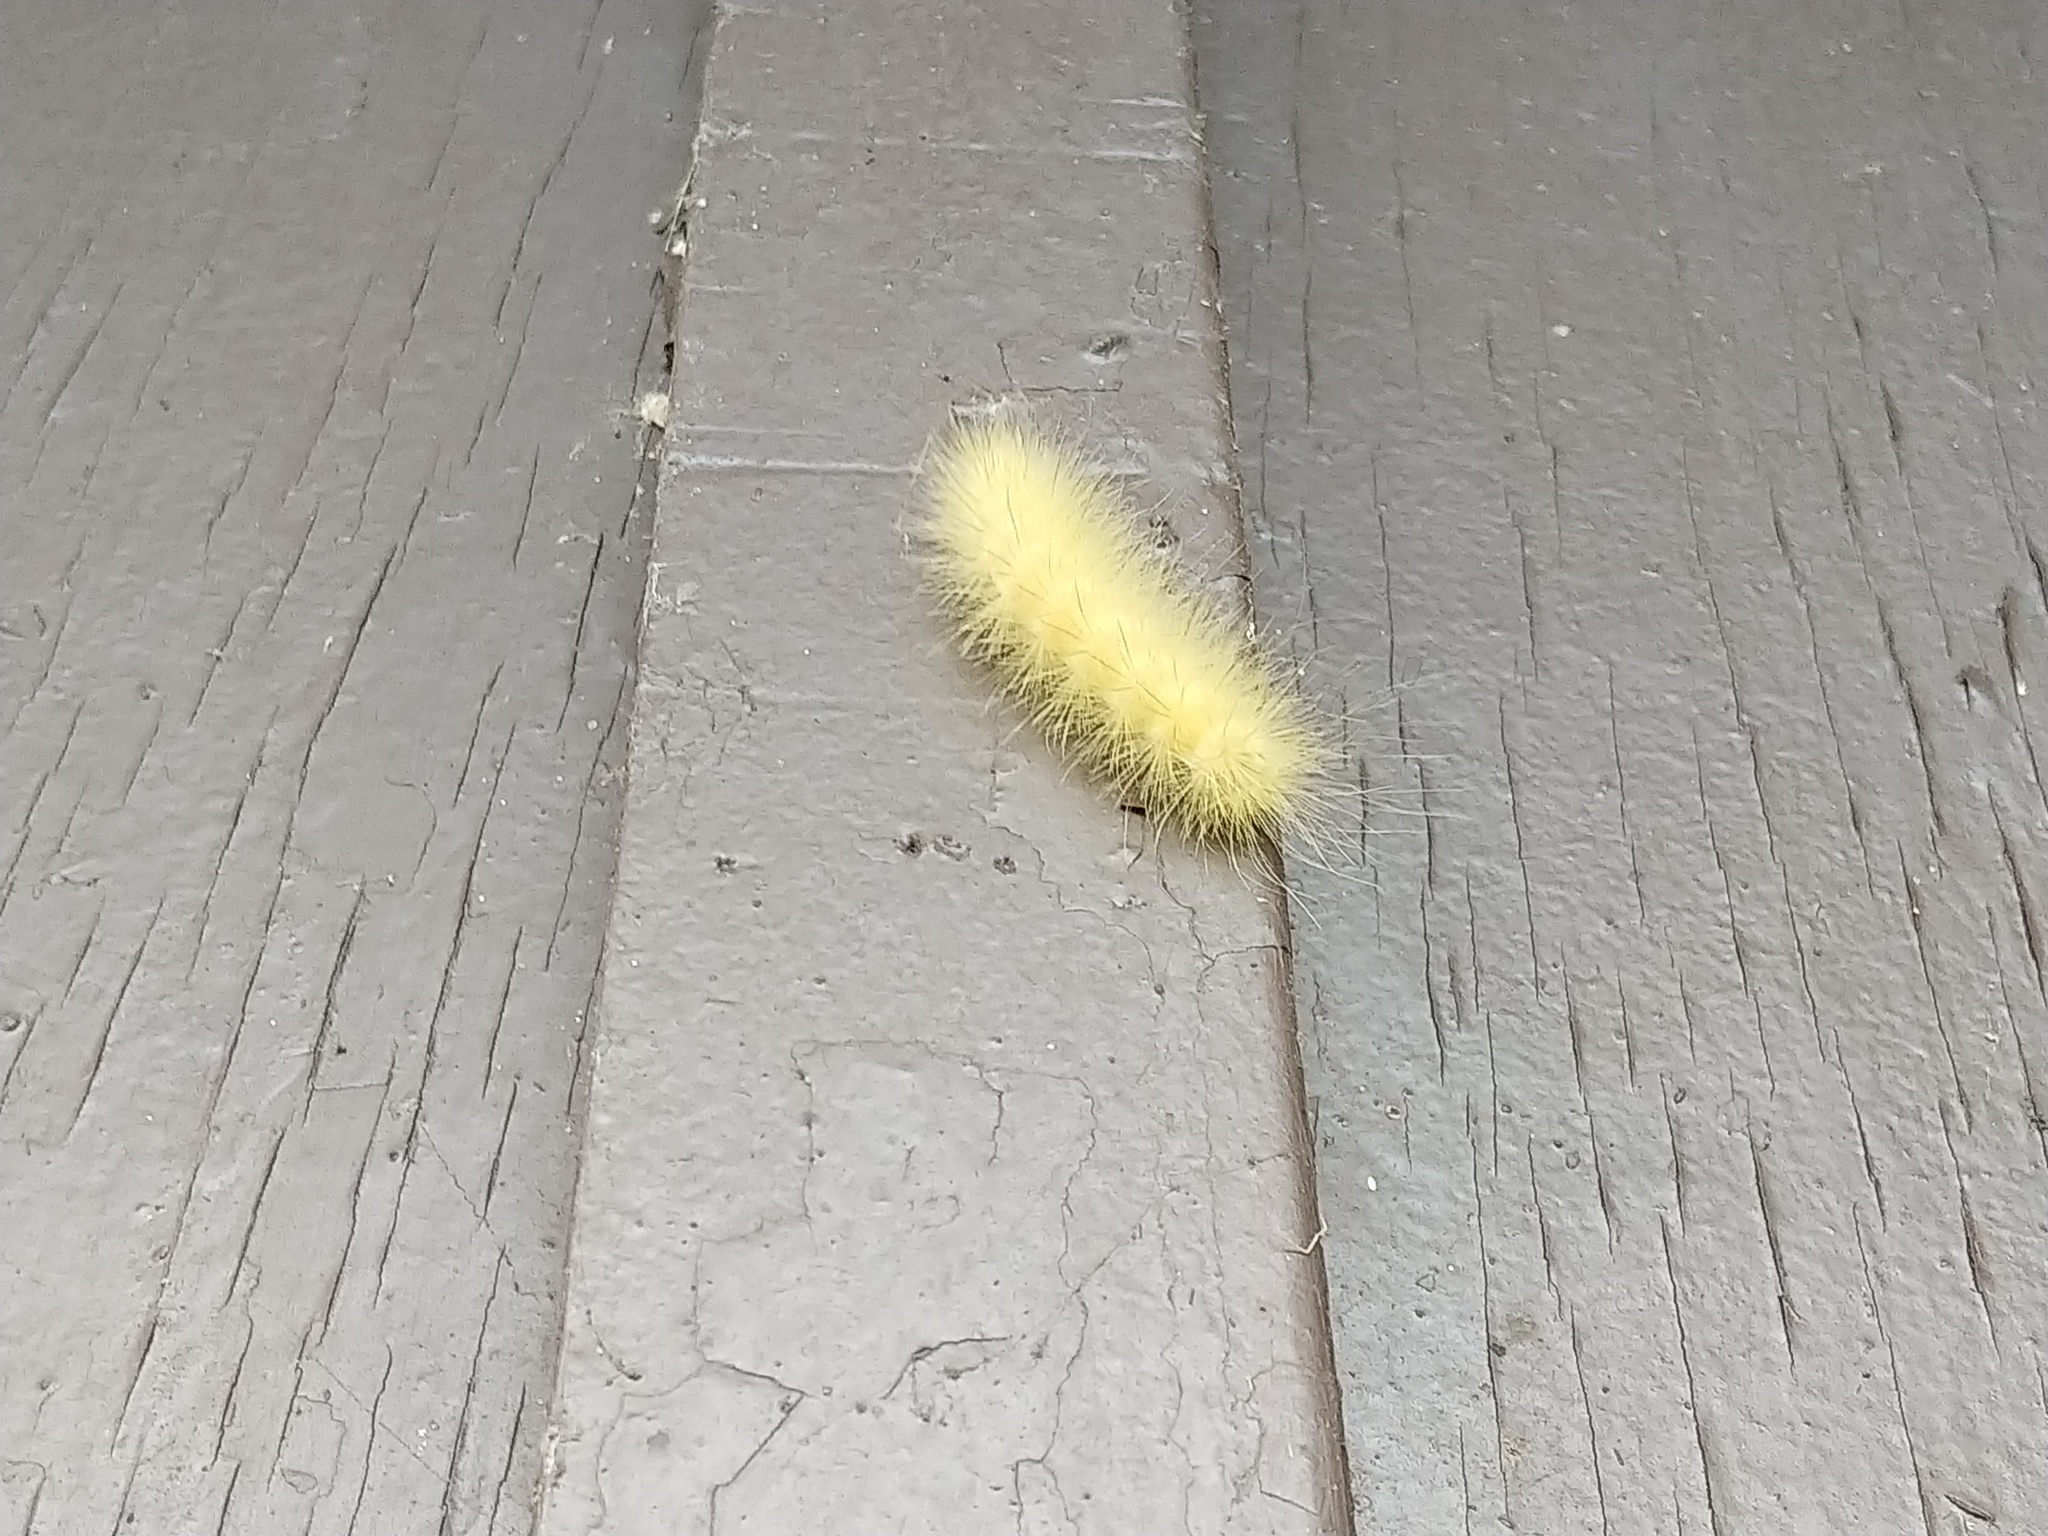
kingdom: Animalia
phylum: Arthropoda
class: Insecta
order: Lepidoptera
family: Erebidae
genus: Spilosoma
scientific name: Spilosoma virginica
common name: Virginia tiger moth
